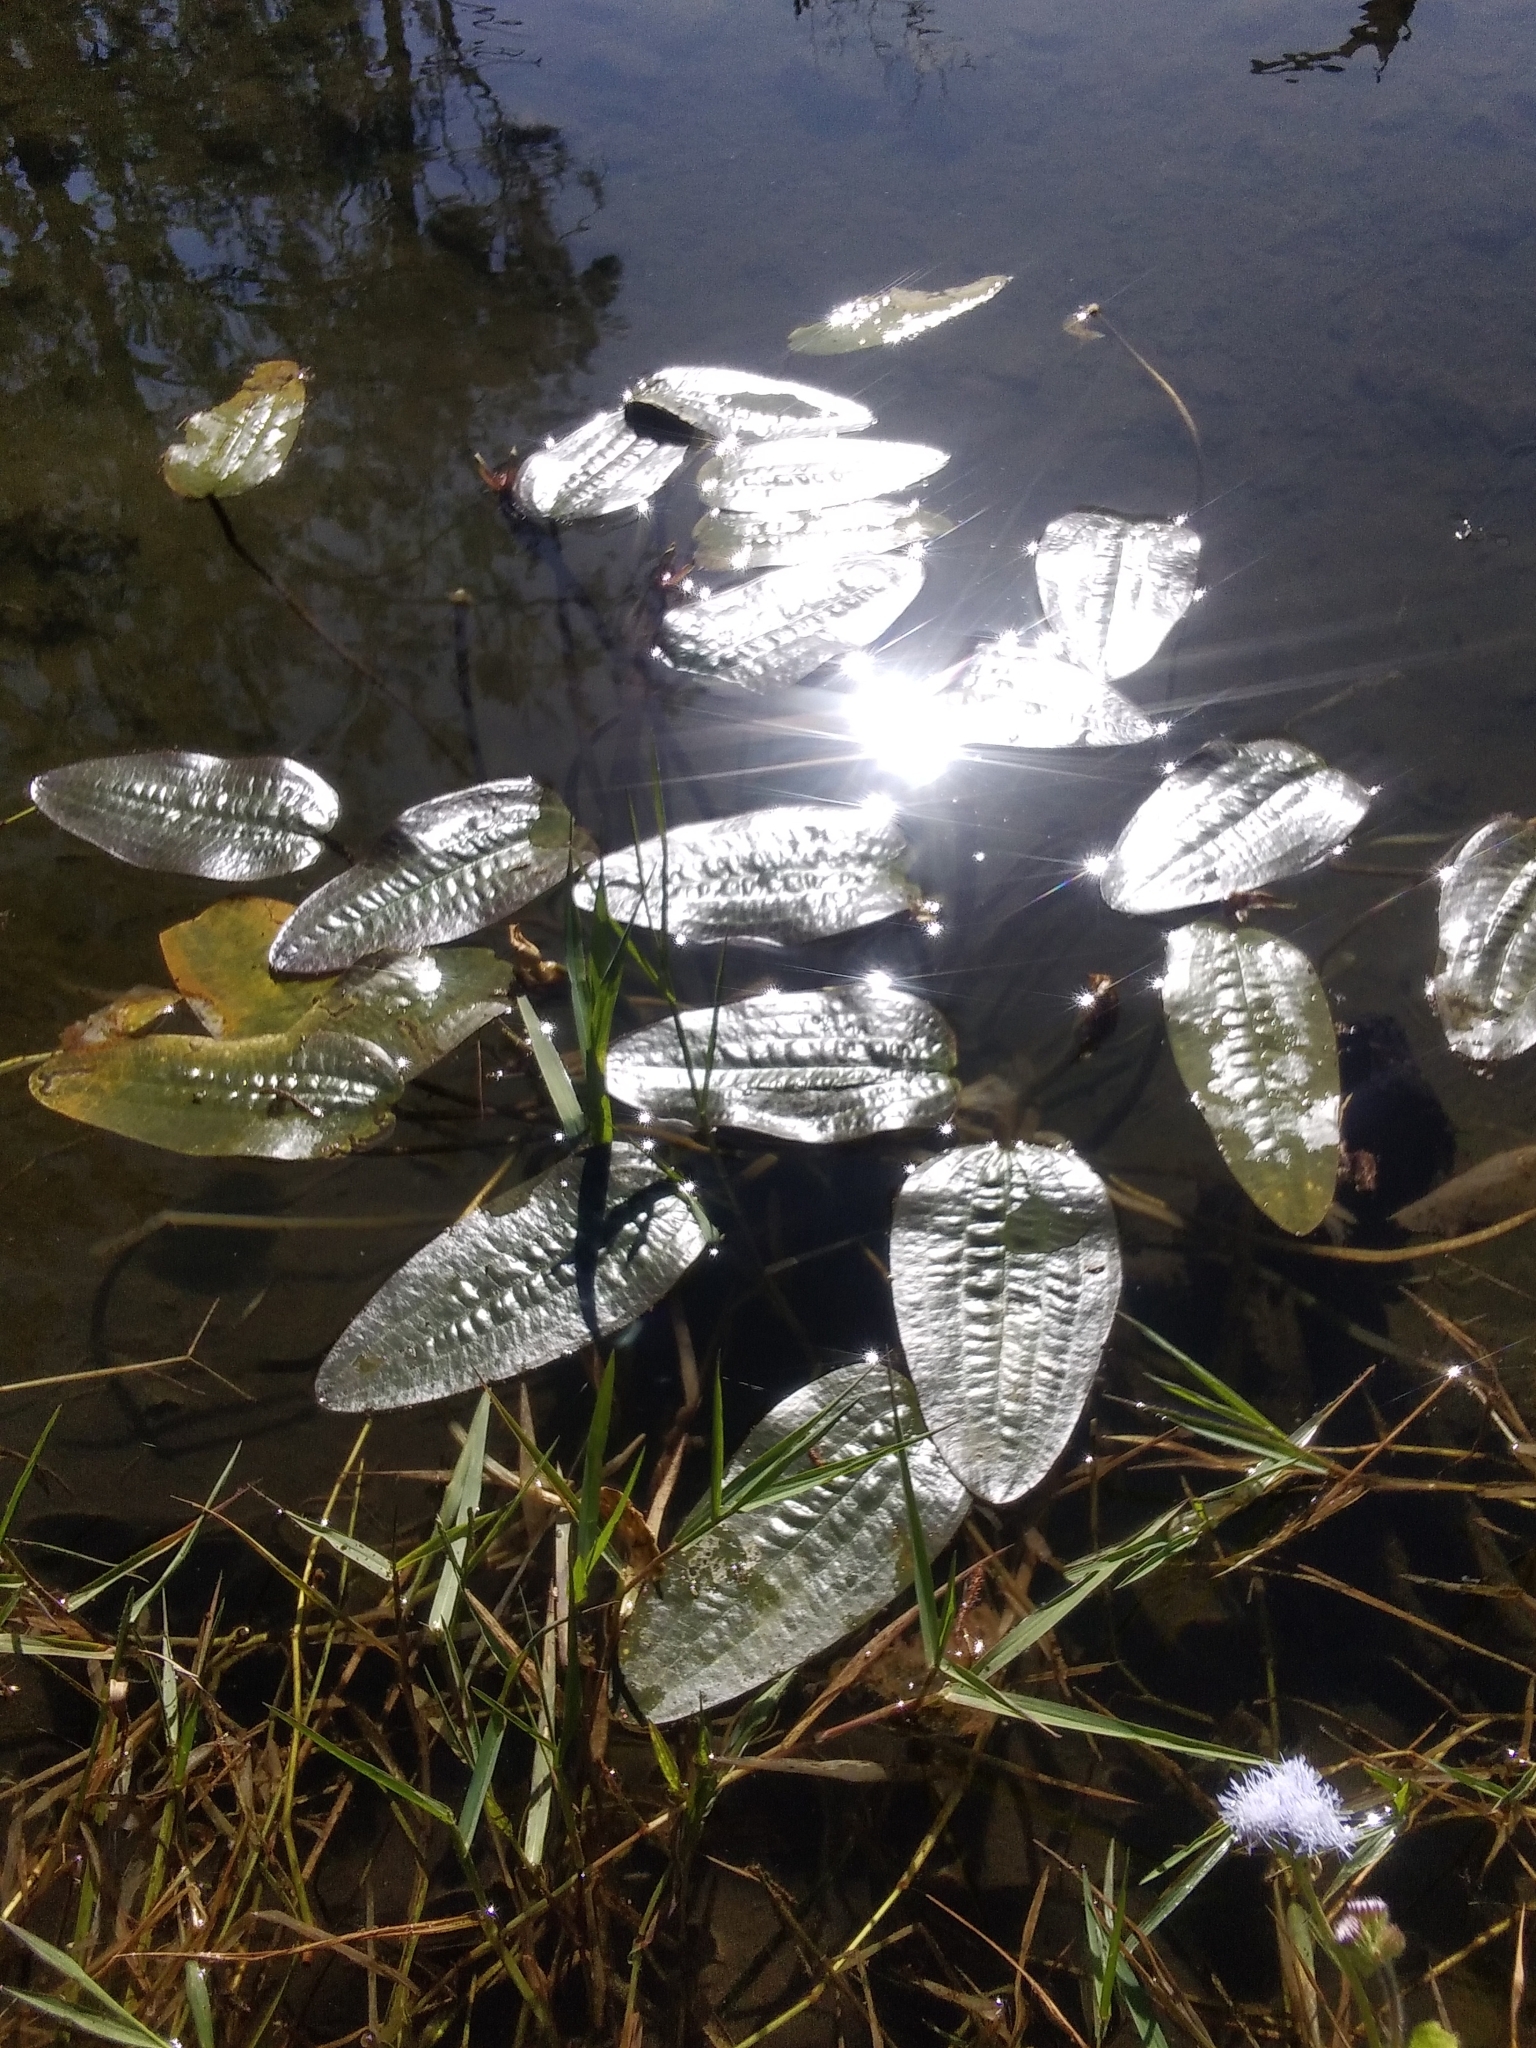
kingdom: Plantae
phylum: Tracheophyta
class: Liliopsida
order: Alismatales
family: Hydrocharitaceae
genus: Ottelia
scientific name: Ottelia ovalifolia
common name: Swamp-lily
